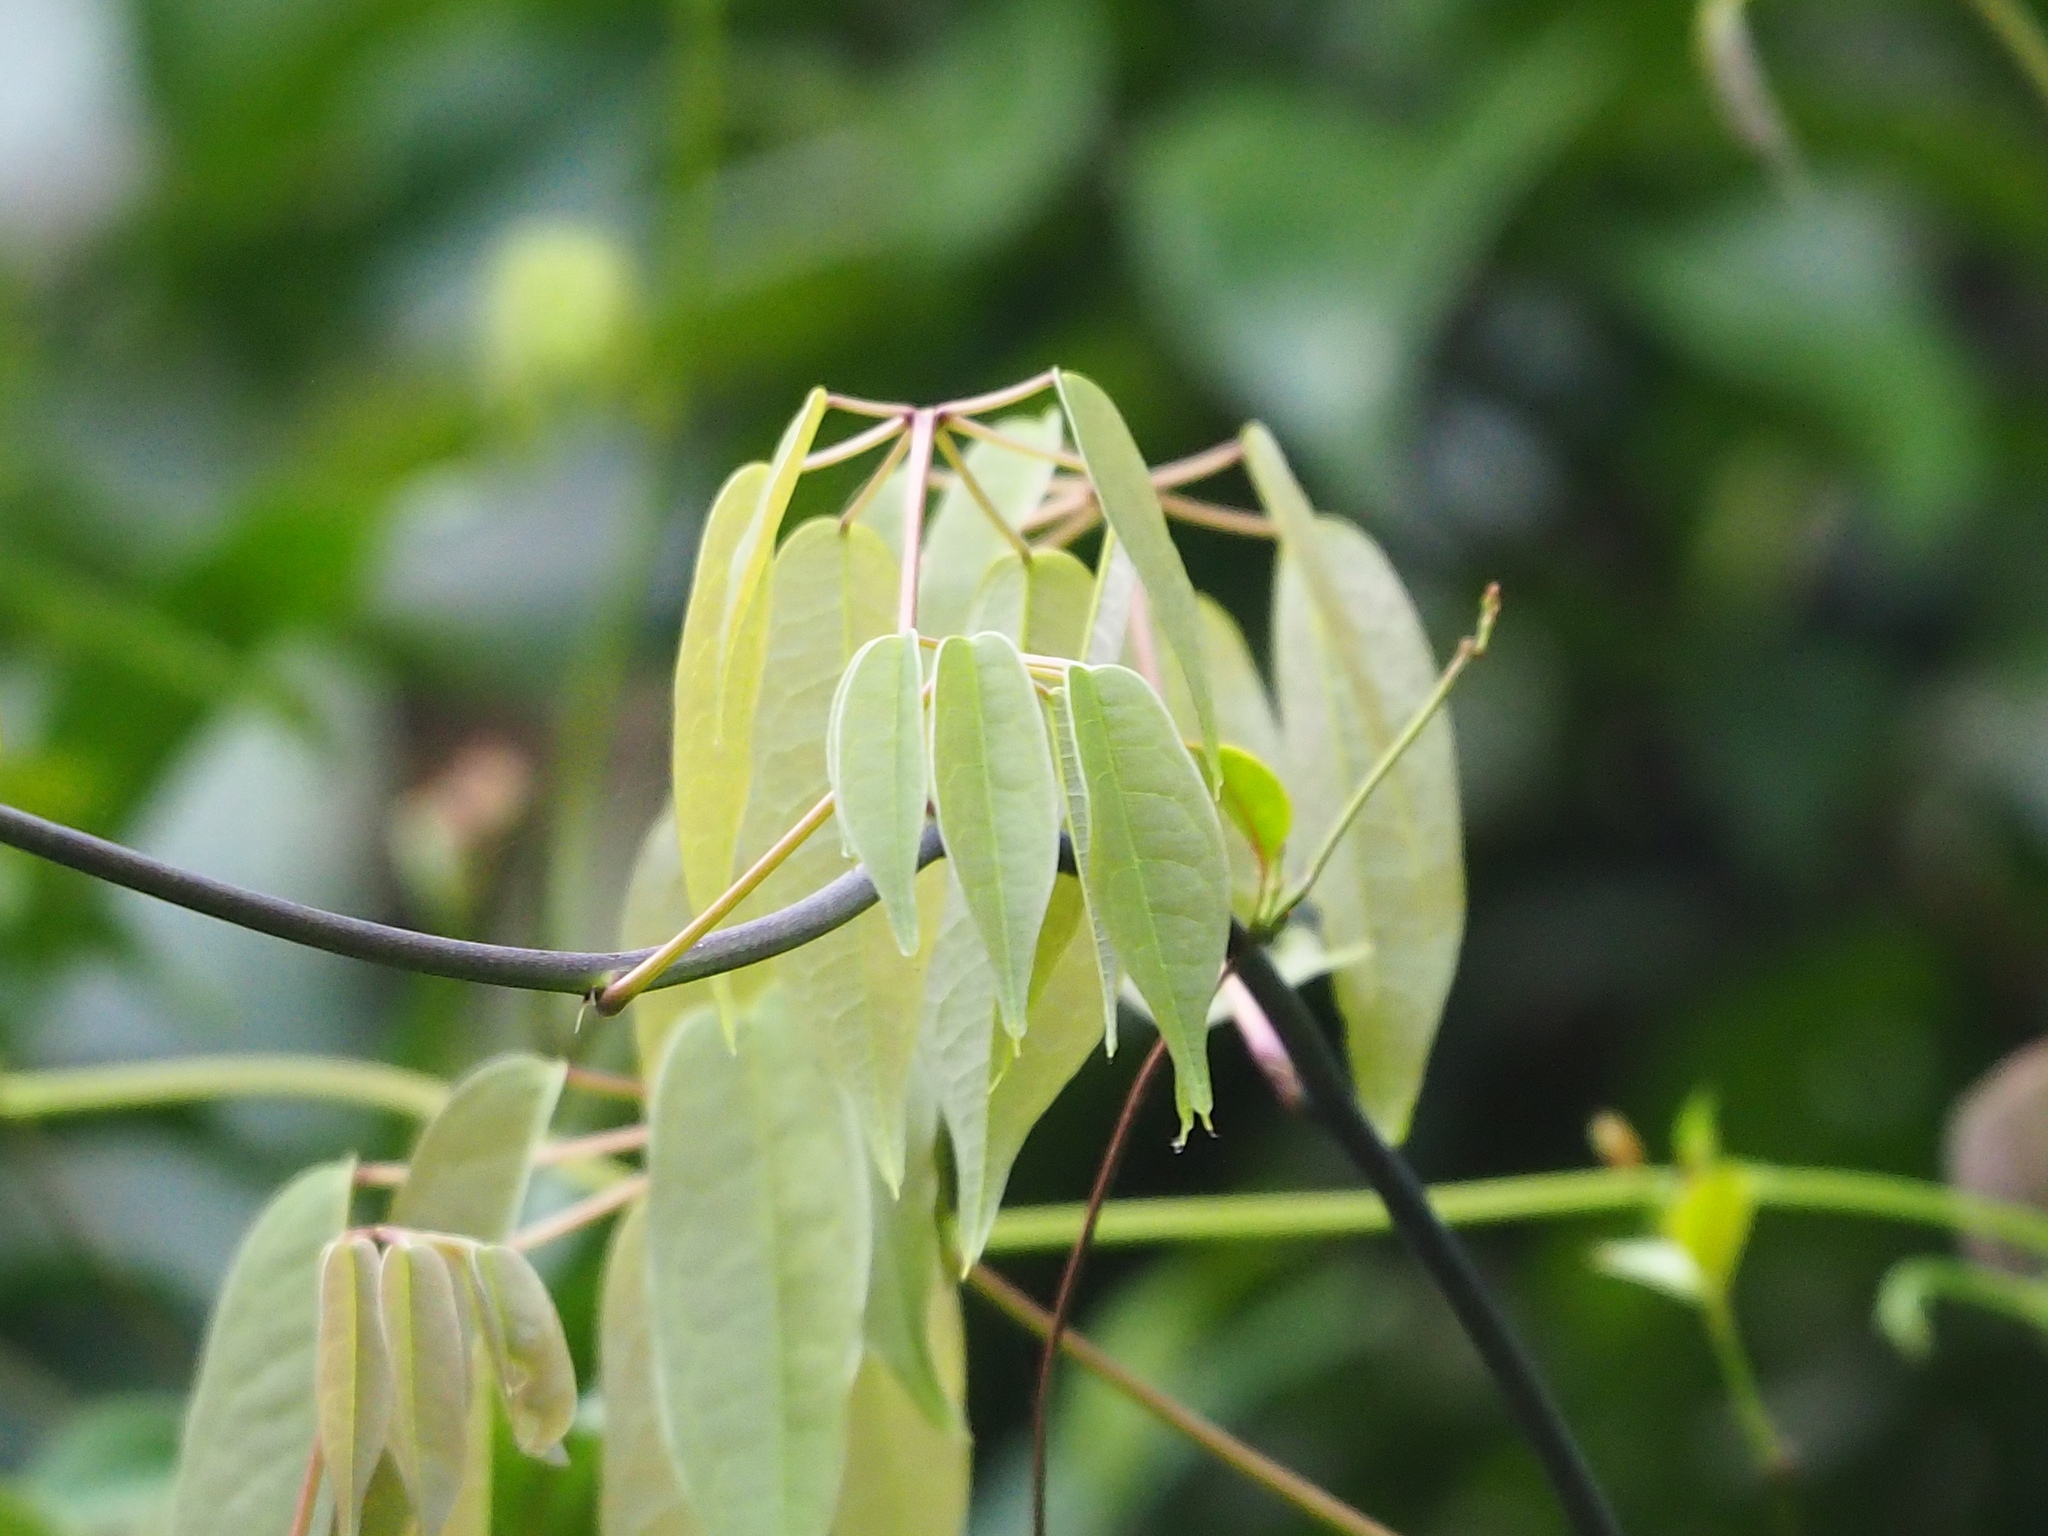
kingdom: Plantae
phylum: Tracheophyta
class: Magnoliopsida
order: Ranunculales
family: Lardizabalaceae
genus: Stauntonia
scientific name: Stauntonia obovatifoliola
